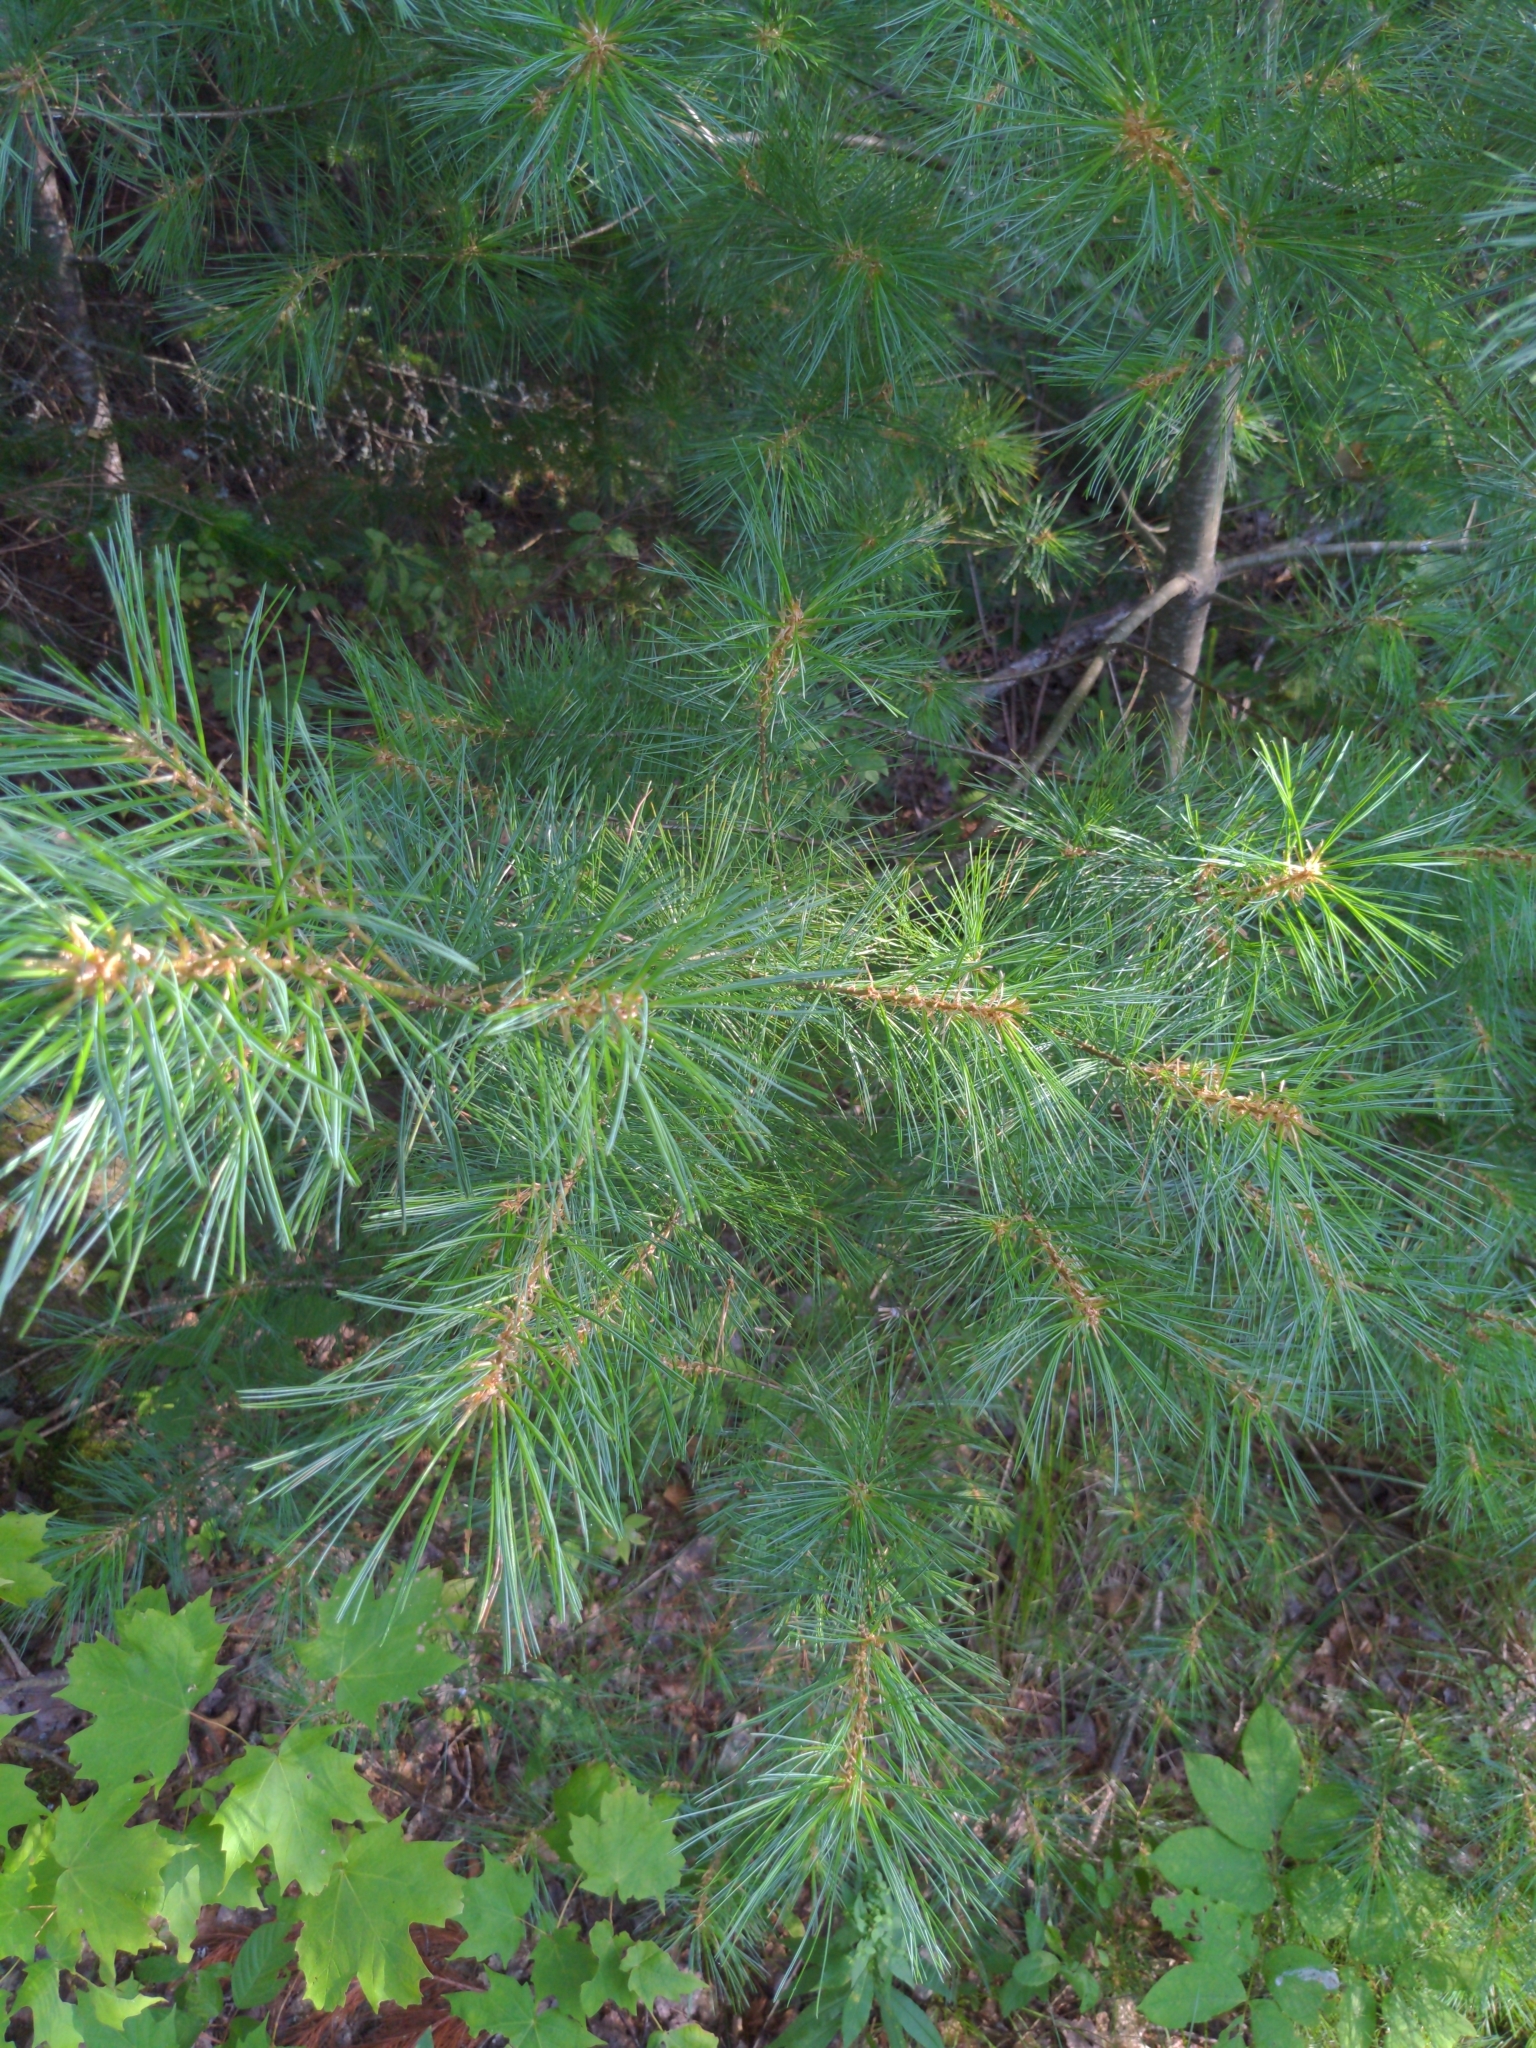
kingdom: Plantae
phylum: Tracheophyta
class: Pinopsida
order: Pinales
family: Pinaceae
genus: Pinus
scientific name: Pinus strobus
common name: Weymouth pine
